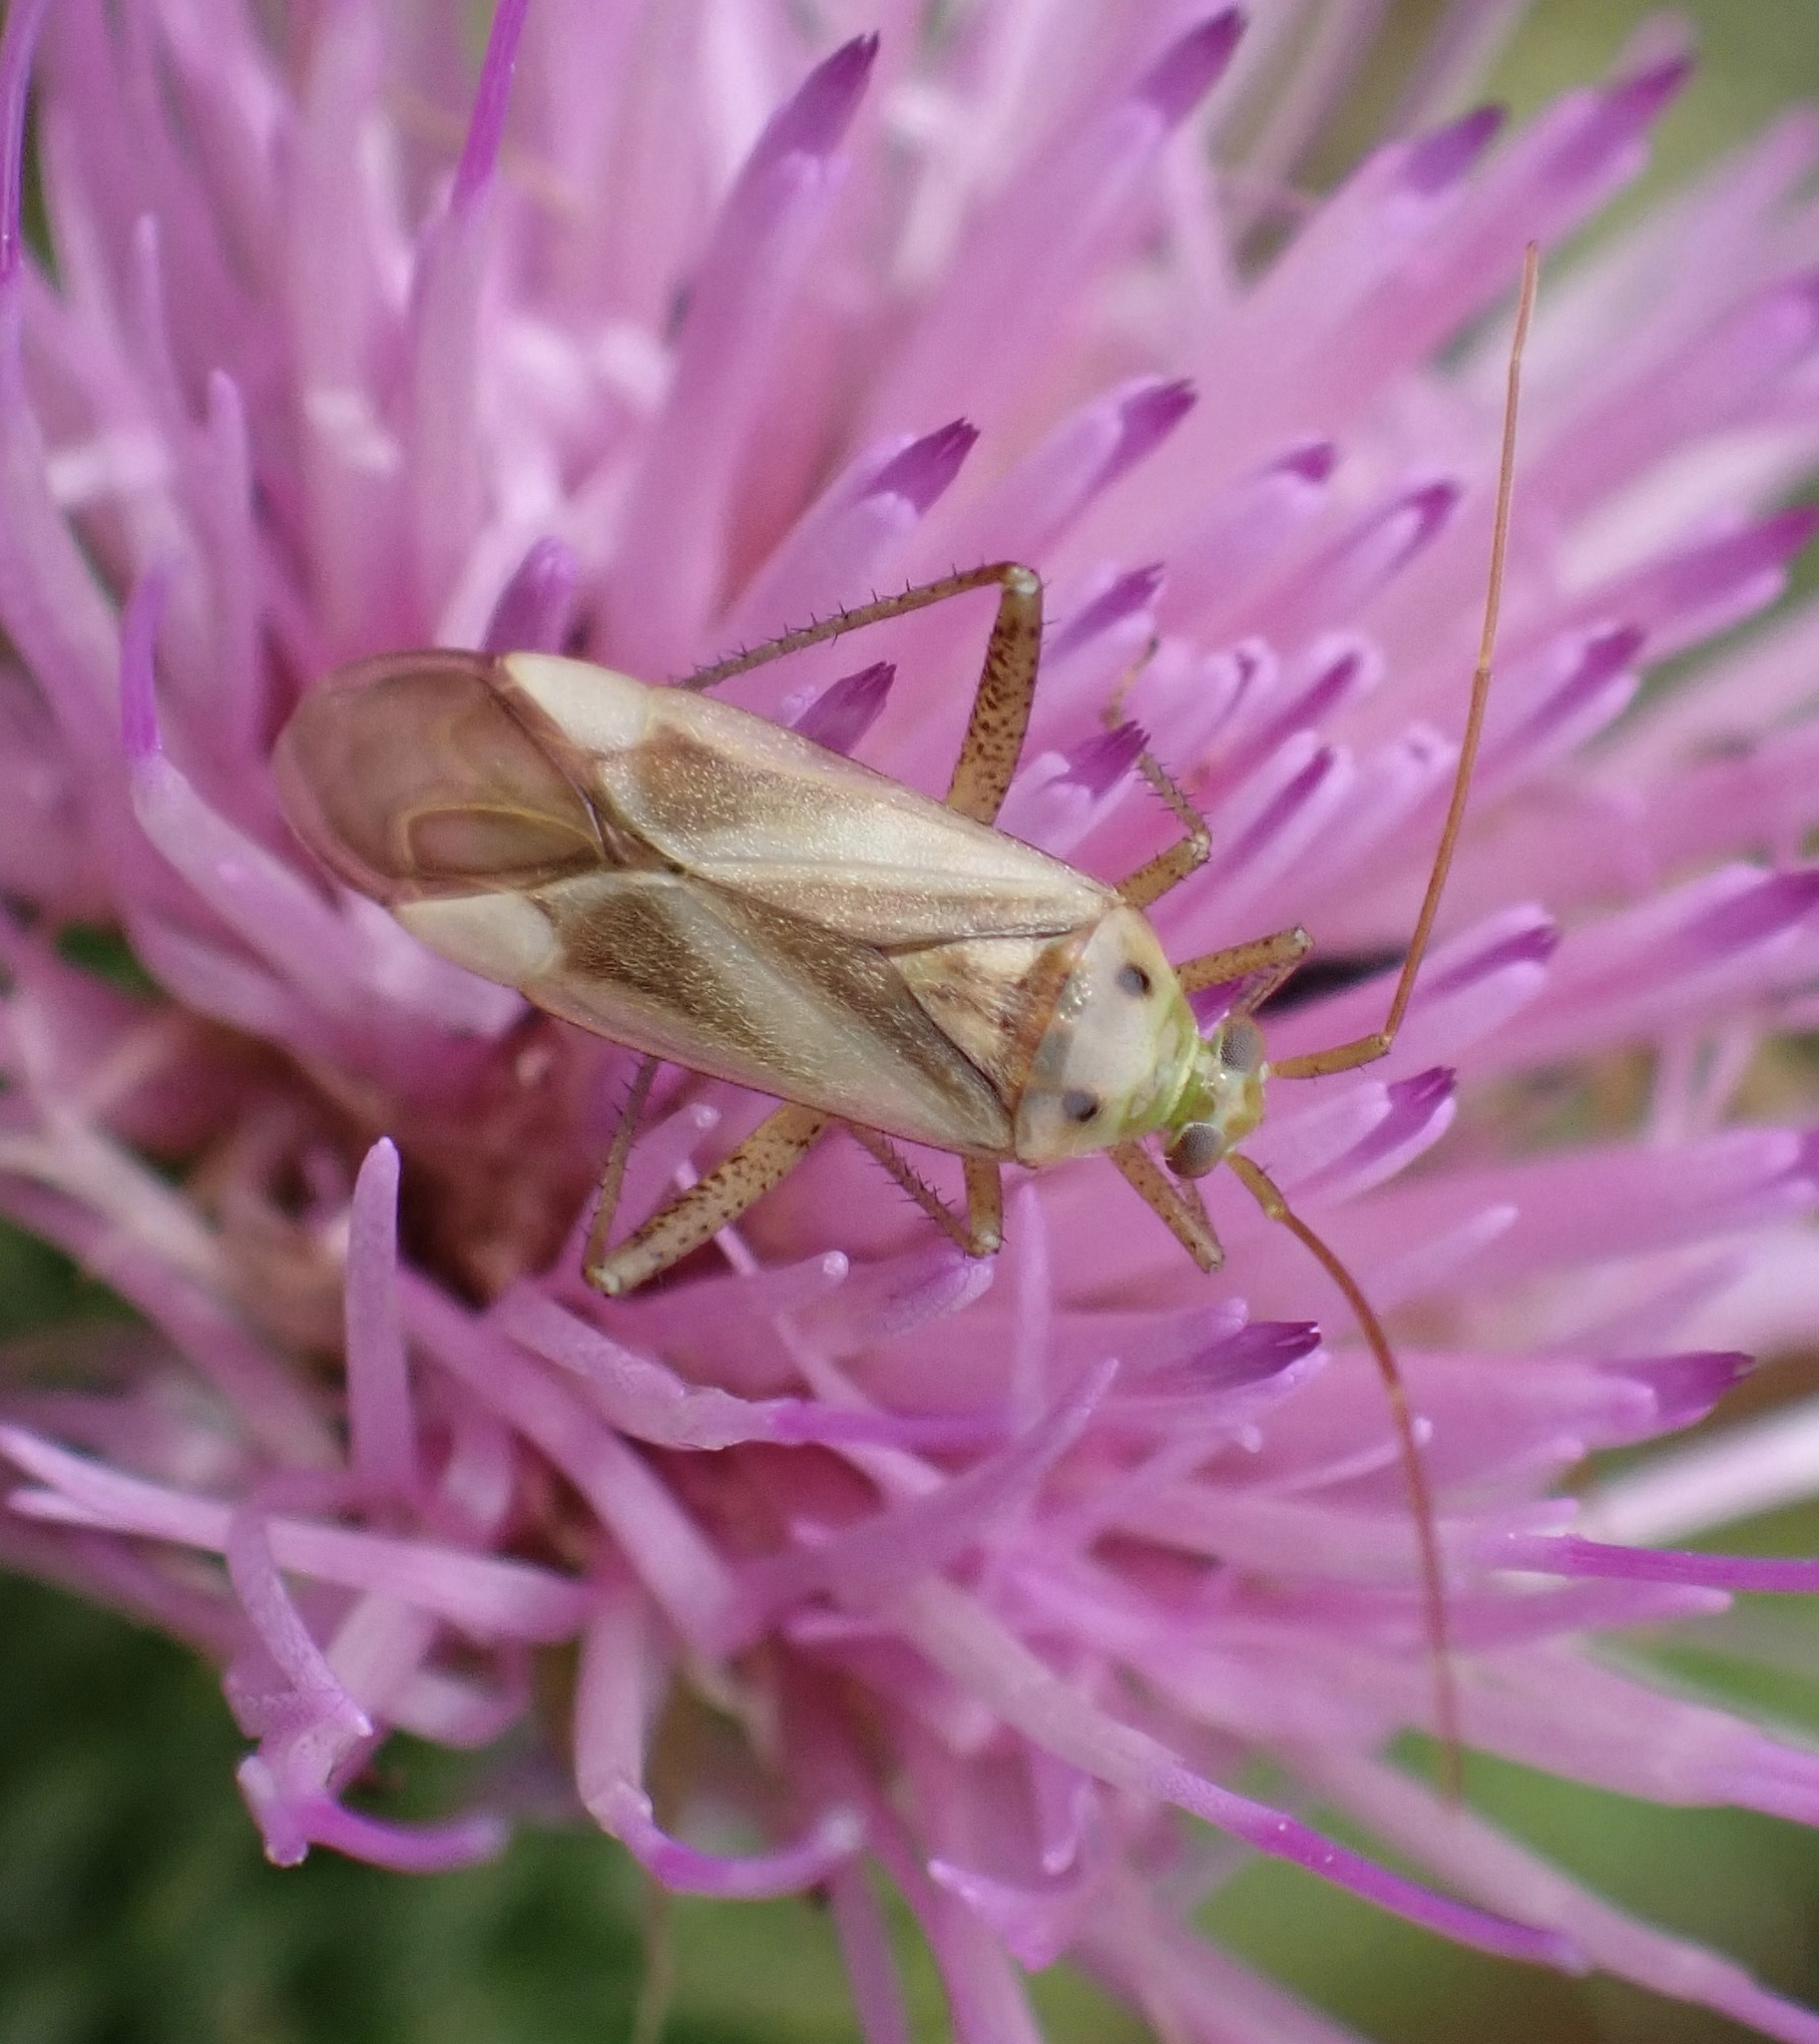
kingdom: Animalia
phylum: Arthropoda
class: Insecta
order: Hemiptera
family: Miridae
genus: Adelphocoris
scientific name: Adelphocoris lineolatus
